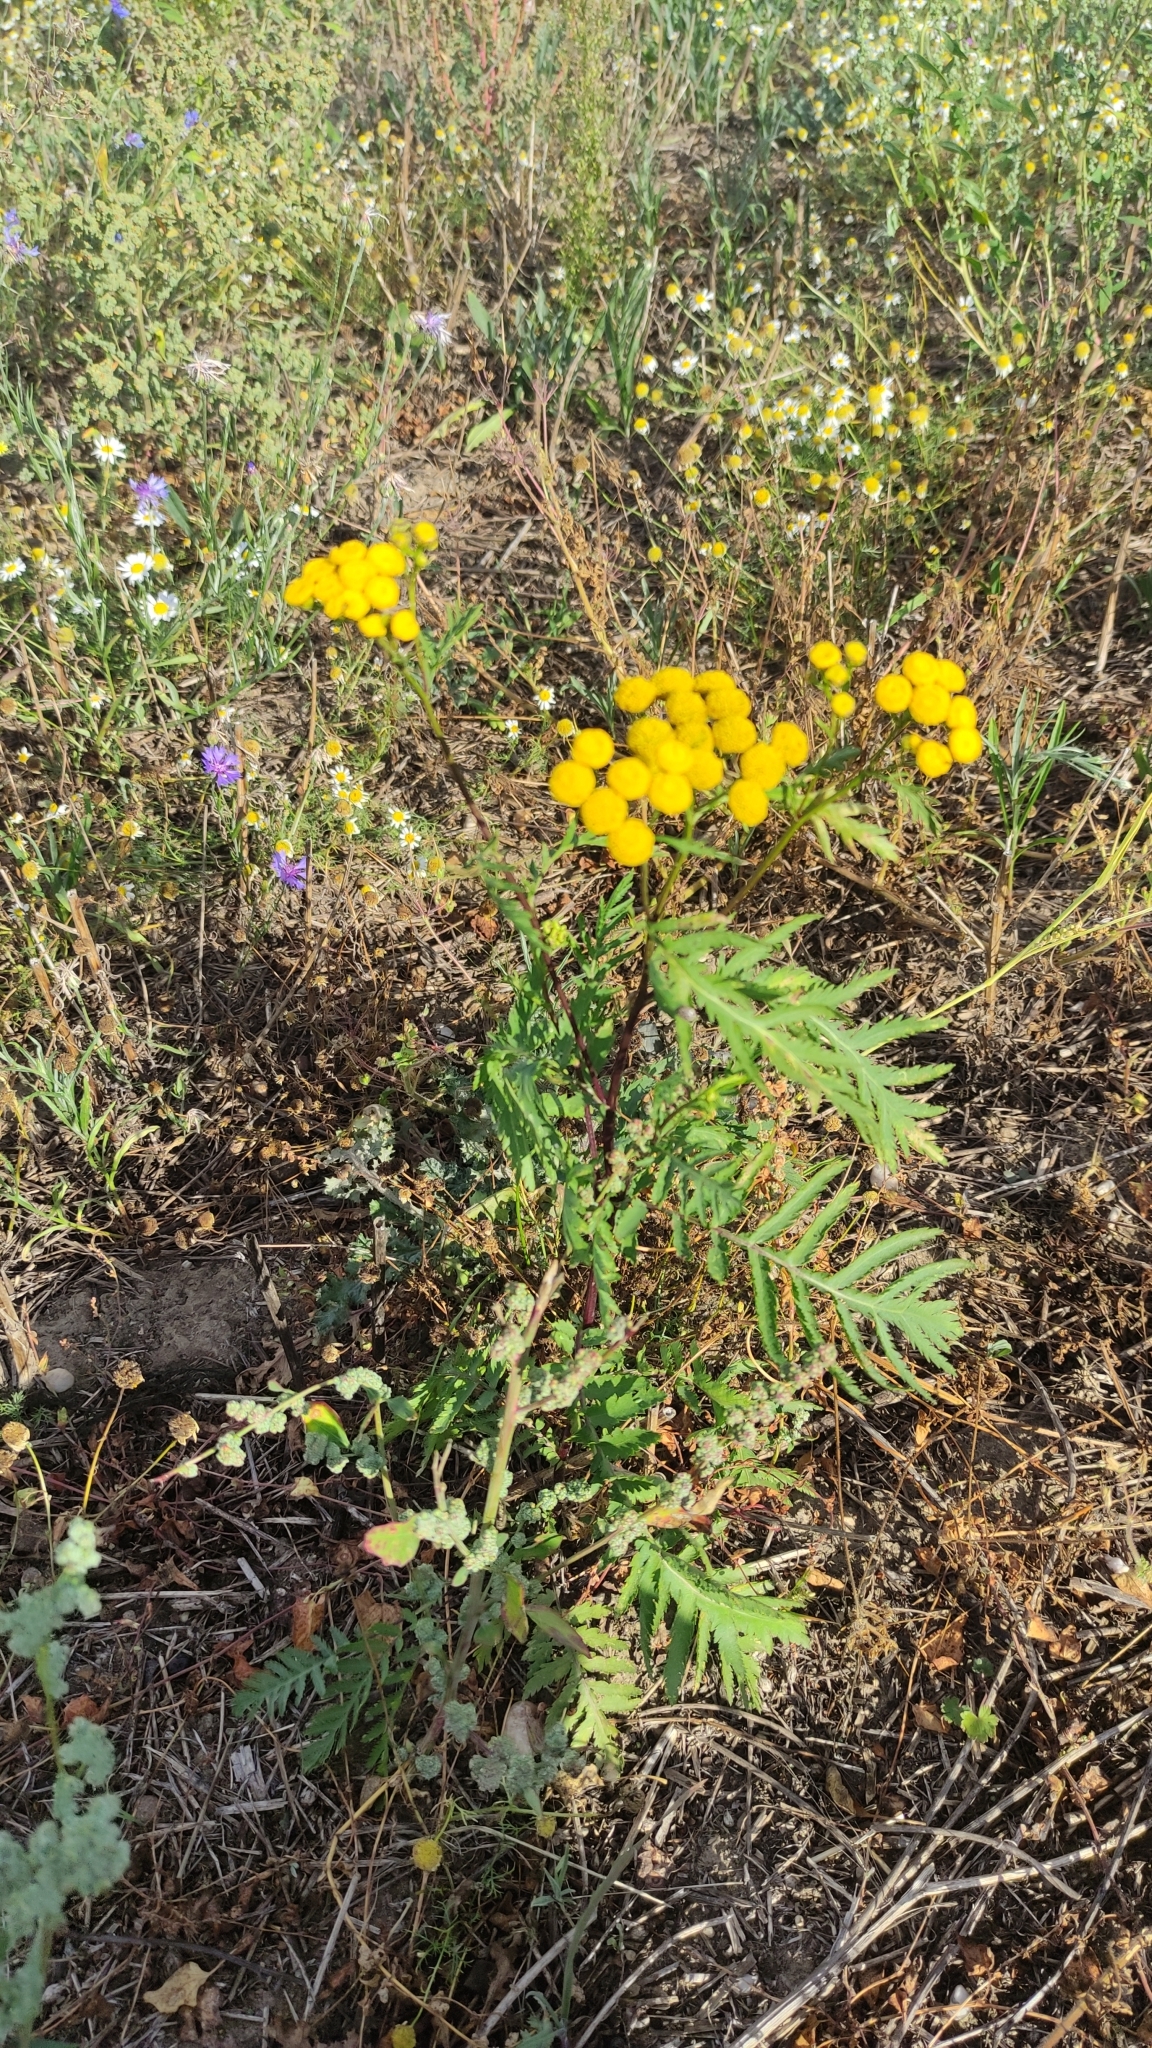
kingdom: Plantae
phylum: Tracheophyta
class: Magnoliopsida
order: Asterales
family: Asteraceae
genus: Tanacetum
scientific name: Tanacetum vulgare
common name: Common tansy
